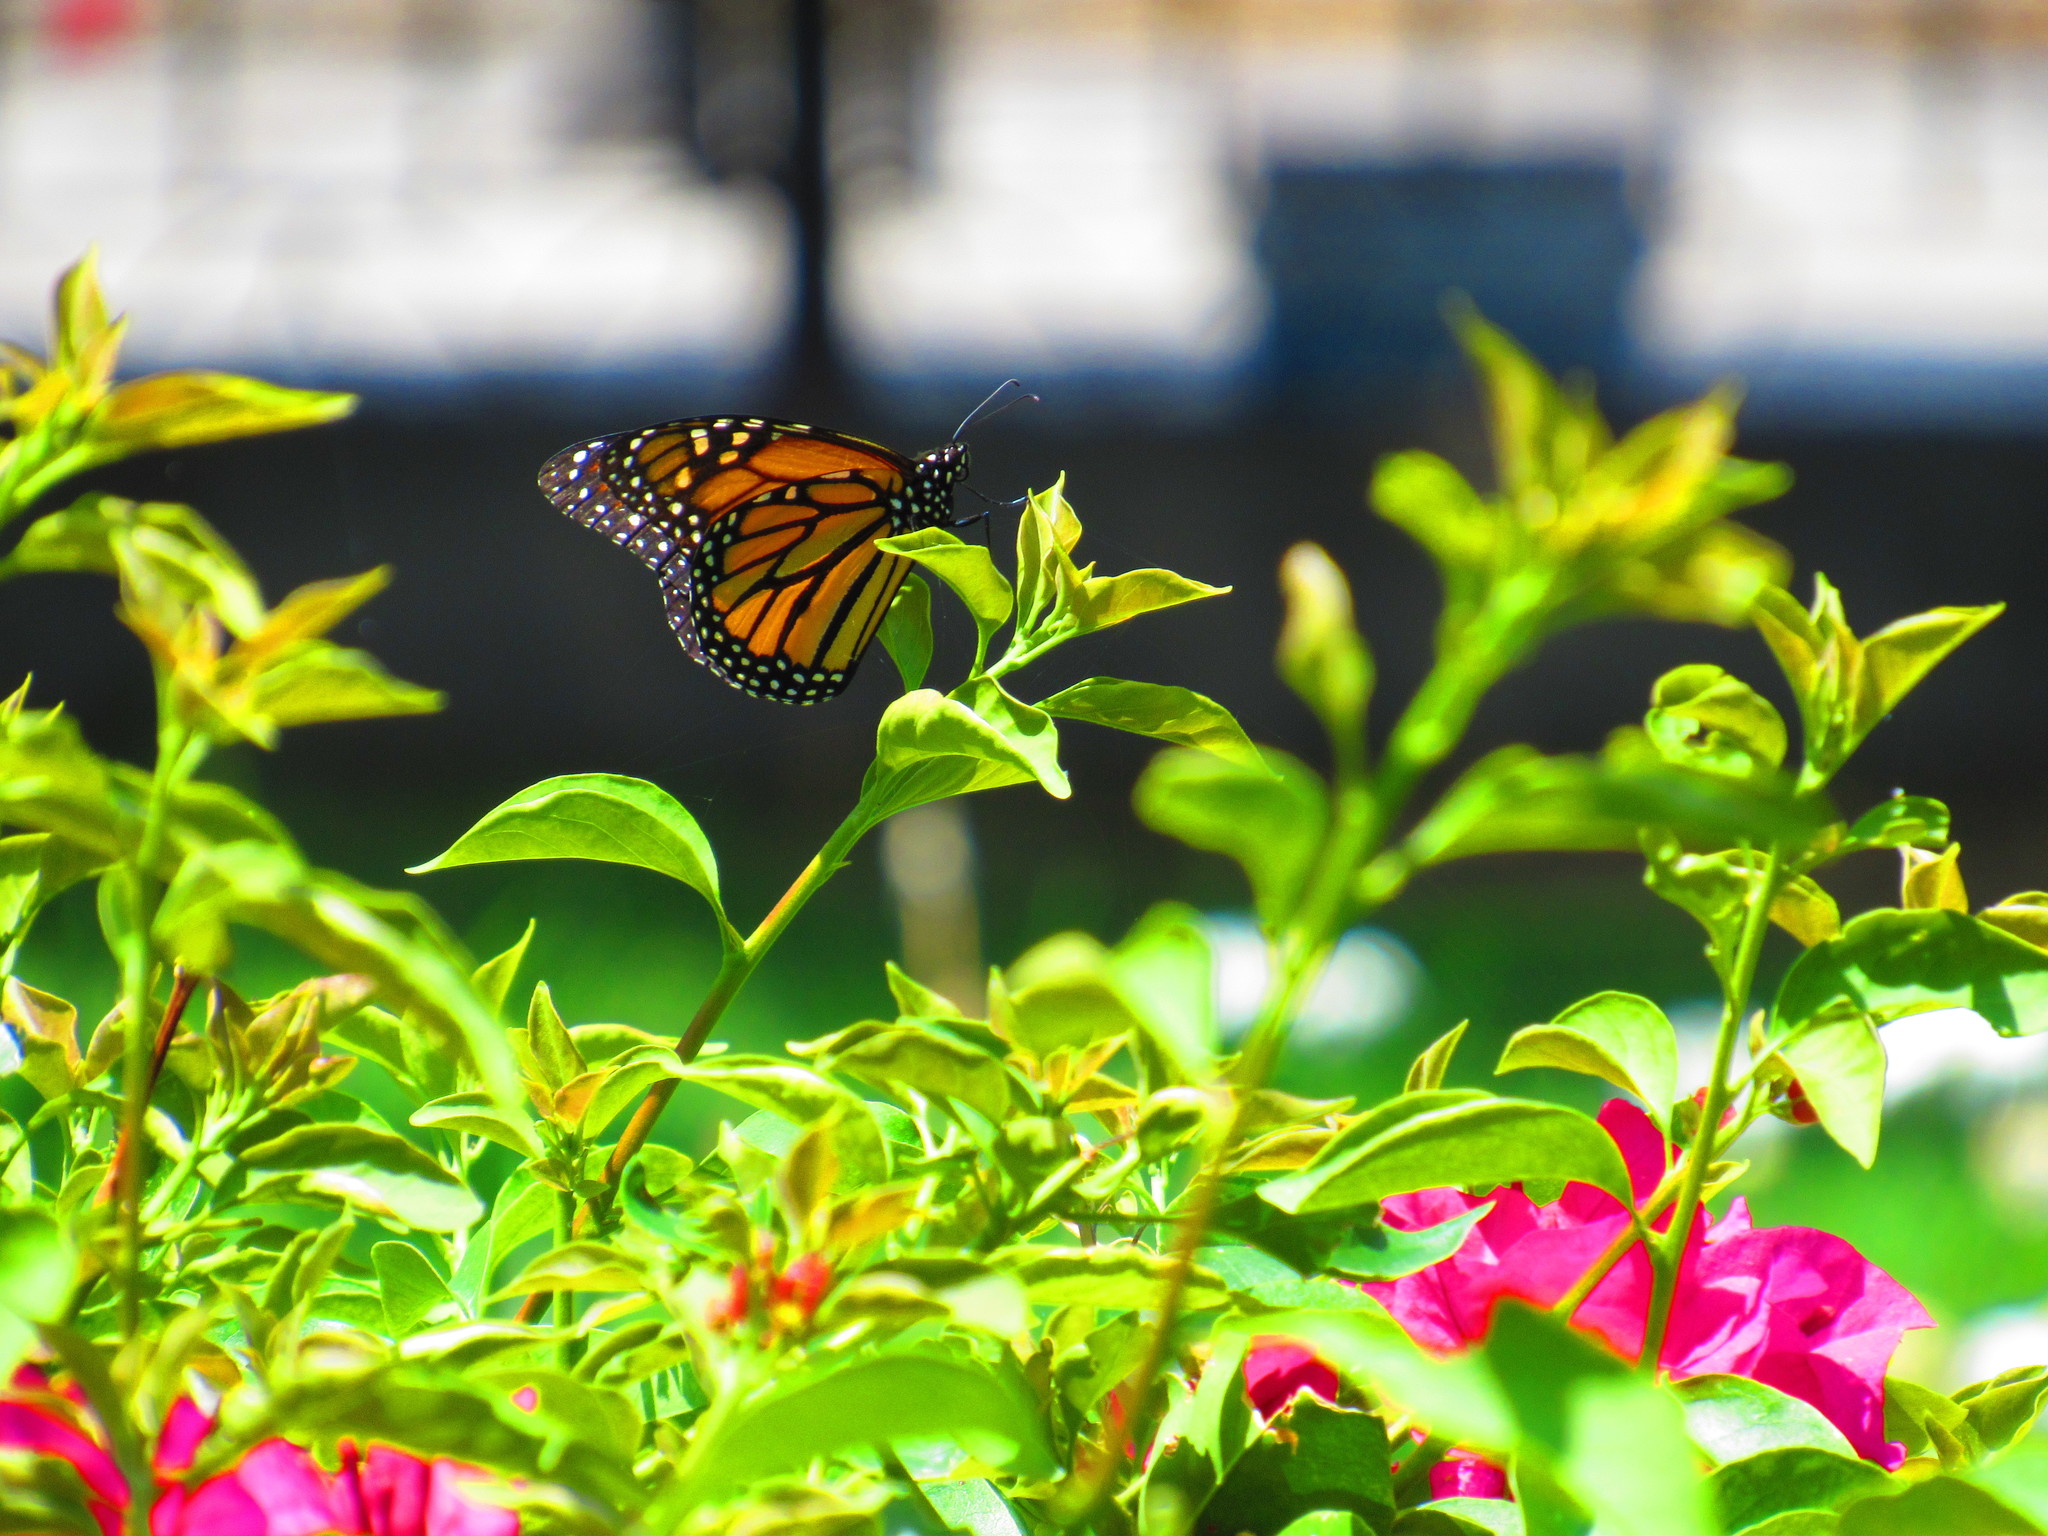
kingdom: Animalia
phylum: Arthropoda
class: Insecta
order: Lepidoptera
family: Nymphalidae
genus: Danaus
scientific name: Danaus plexippus
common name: Monarch
